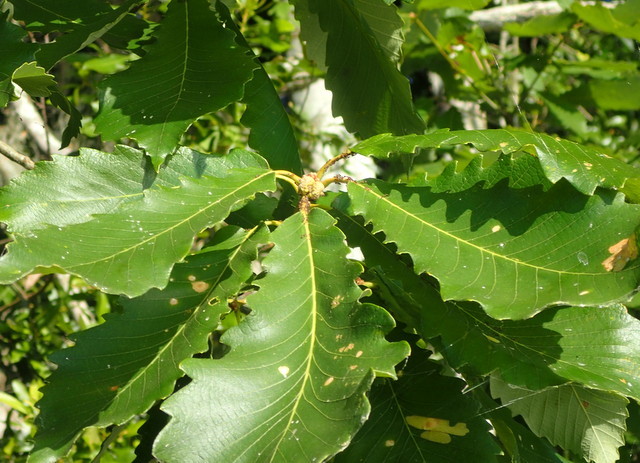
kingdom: Plantae
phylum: Tracheophyta
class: Magnoliopsida
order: Fagales
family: Fagaceae
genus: Quercus
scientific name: Quercus michauxii
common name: Swamp chestnut oak
